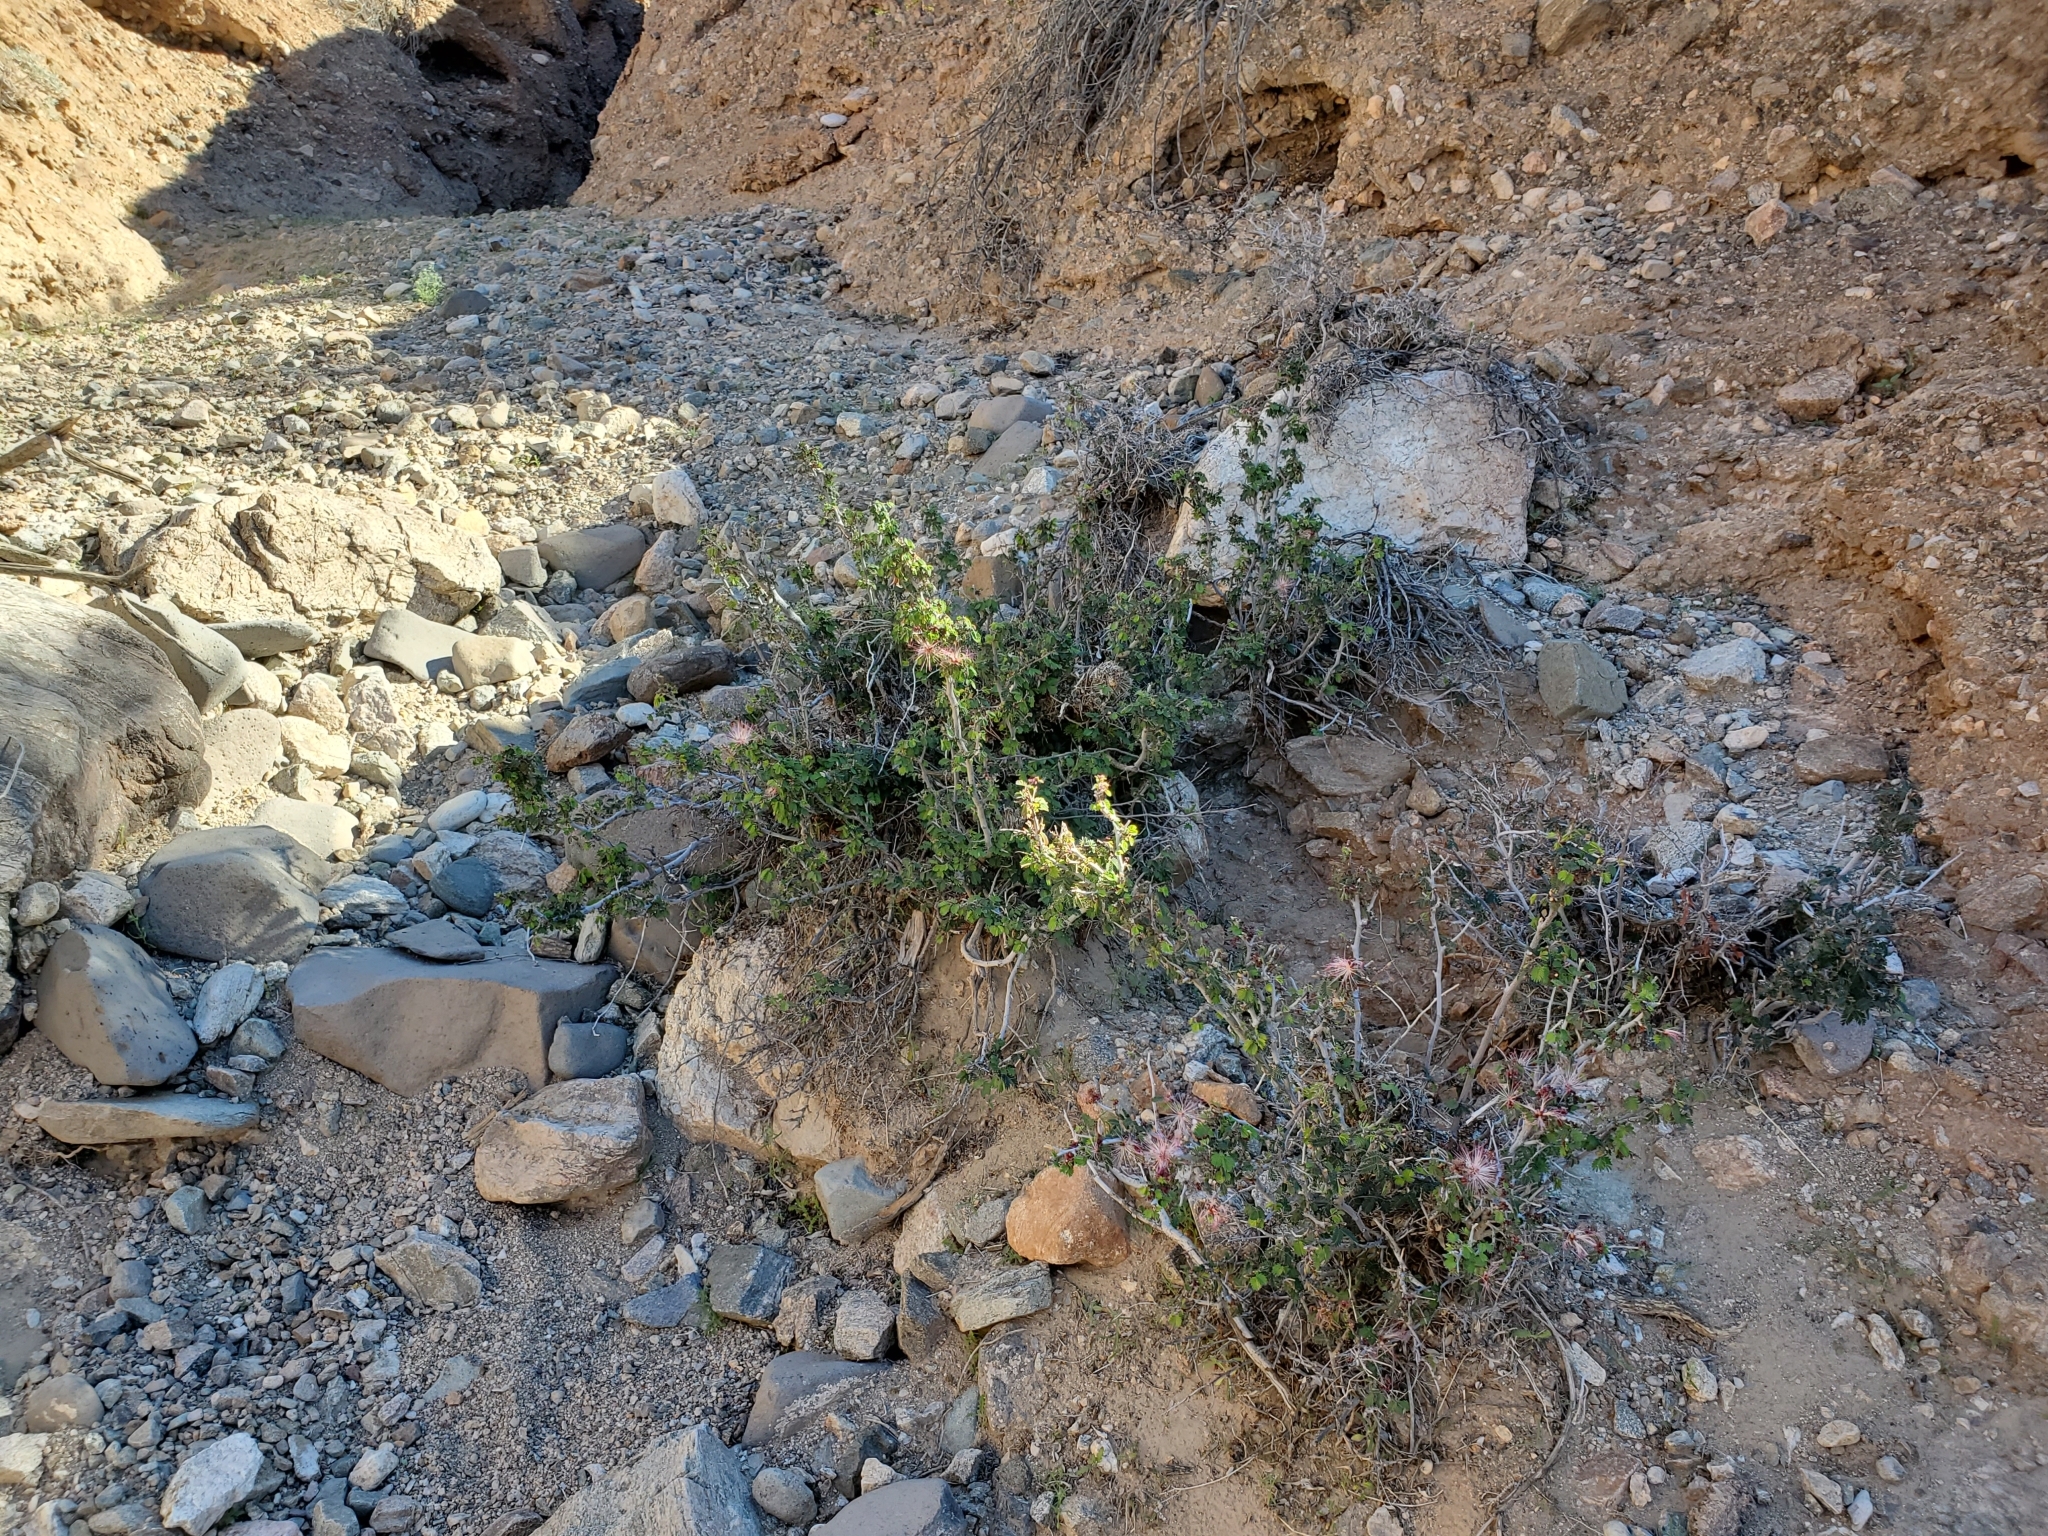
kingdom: Plantae
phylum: Tracheophyta
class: Magnoliopsida
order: Fabales
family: Fabaceae
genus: Calliandra
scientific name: Calliandra eriophylla
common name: Fairy-duster
